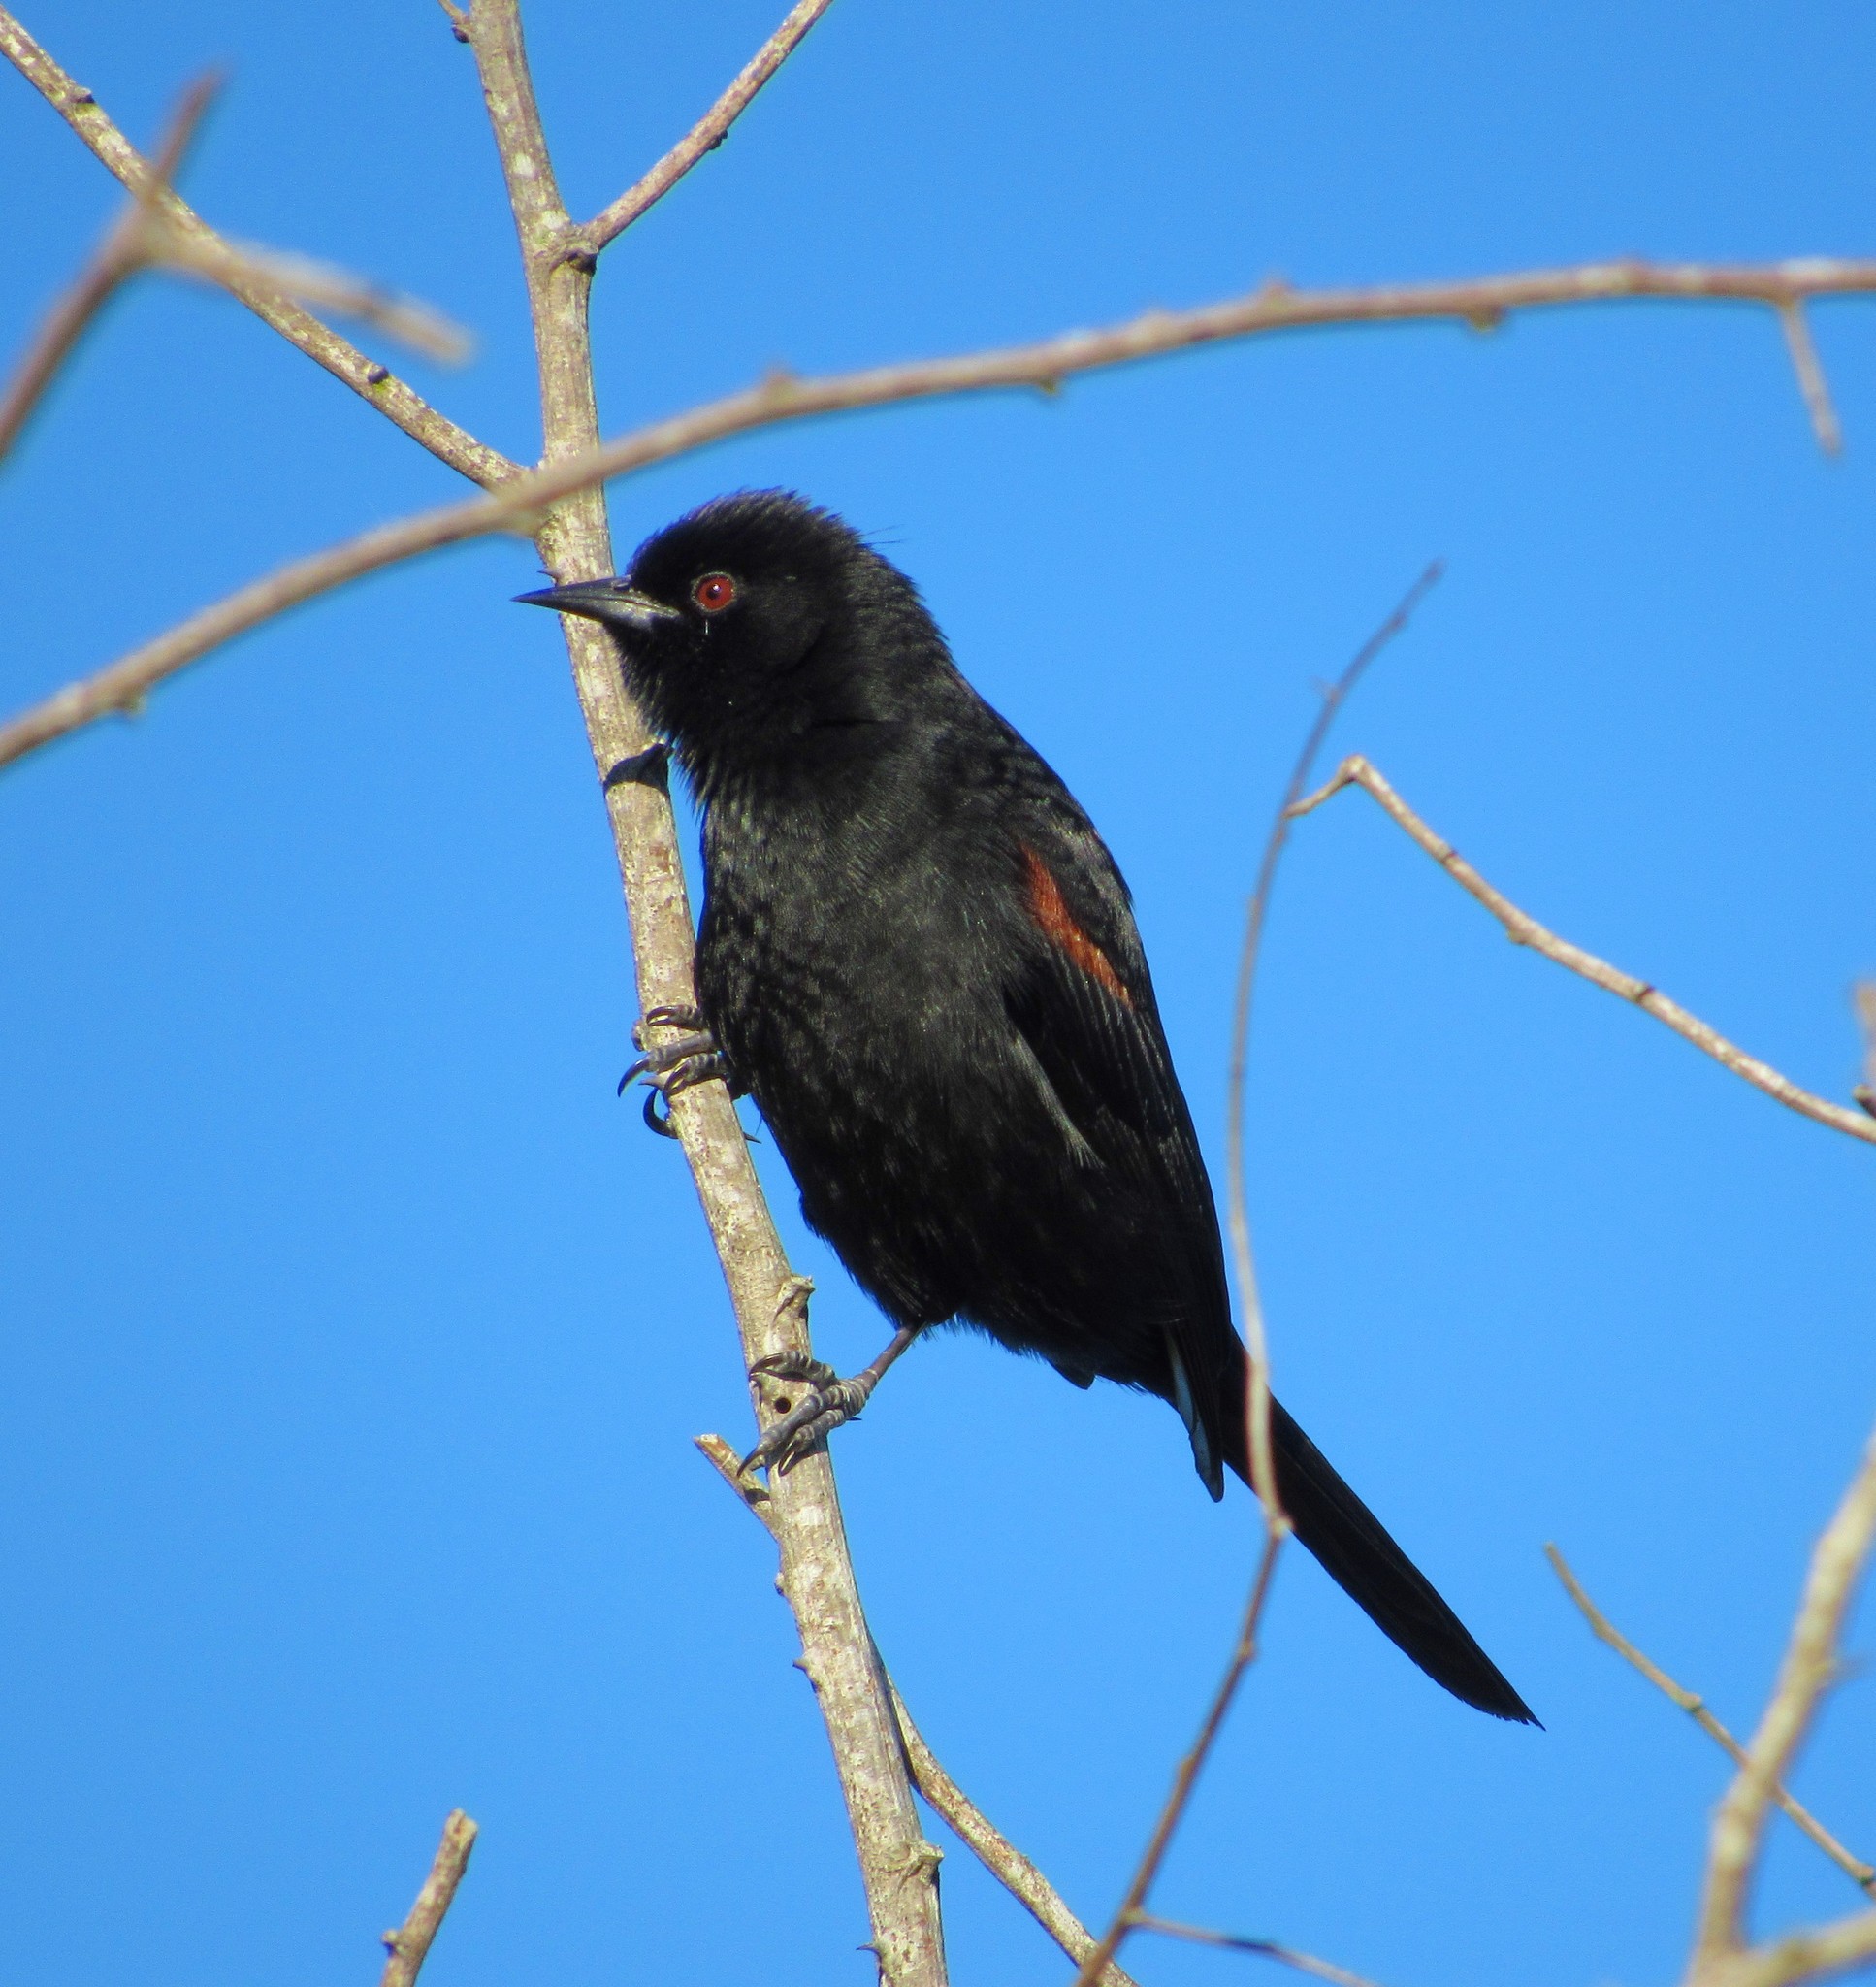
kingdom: Animalia
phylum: Chordata
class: Aves
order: Passeriformes
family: Icteridae
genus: Icterus
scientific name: Icterus cayanensis
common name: Epaulet oriole
